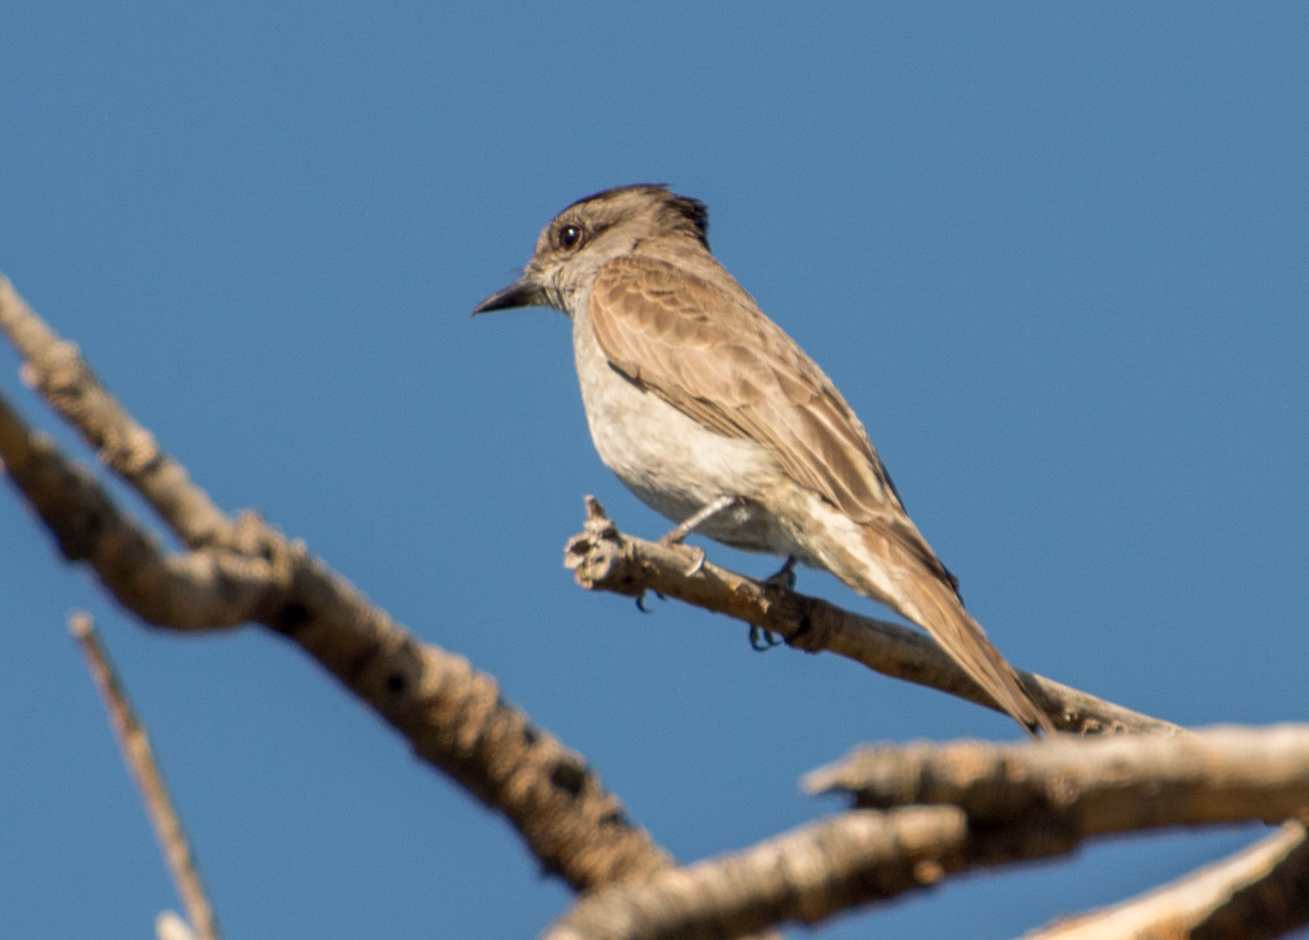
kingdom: Animalia
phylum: Chordata
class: Aves
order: Passeriformes
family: Tyrannidae
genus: Empidonomus
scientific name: Empidonomus aurantioatrocristatus
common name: Crowned slaty flycatcher
